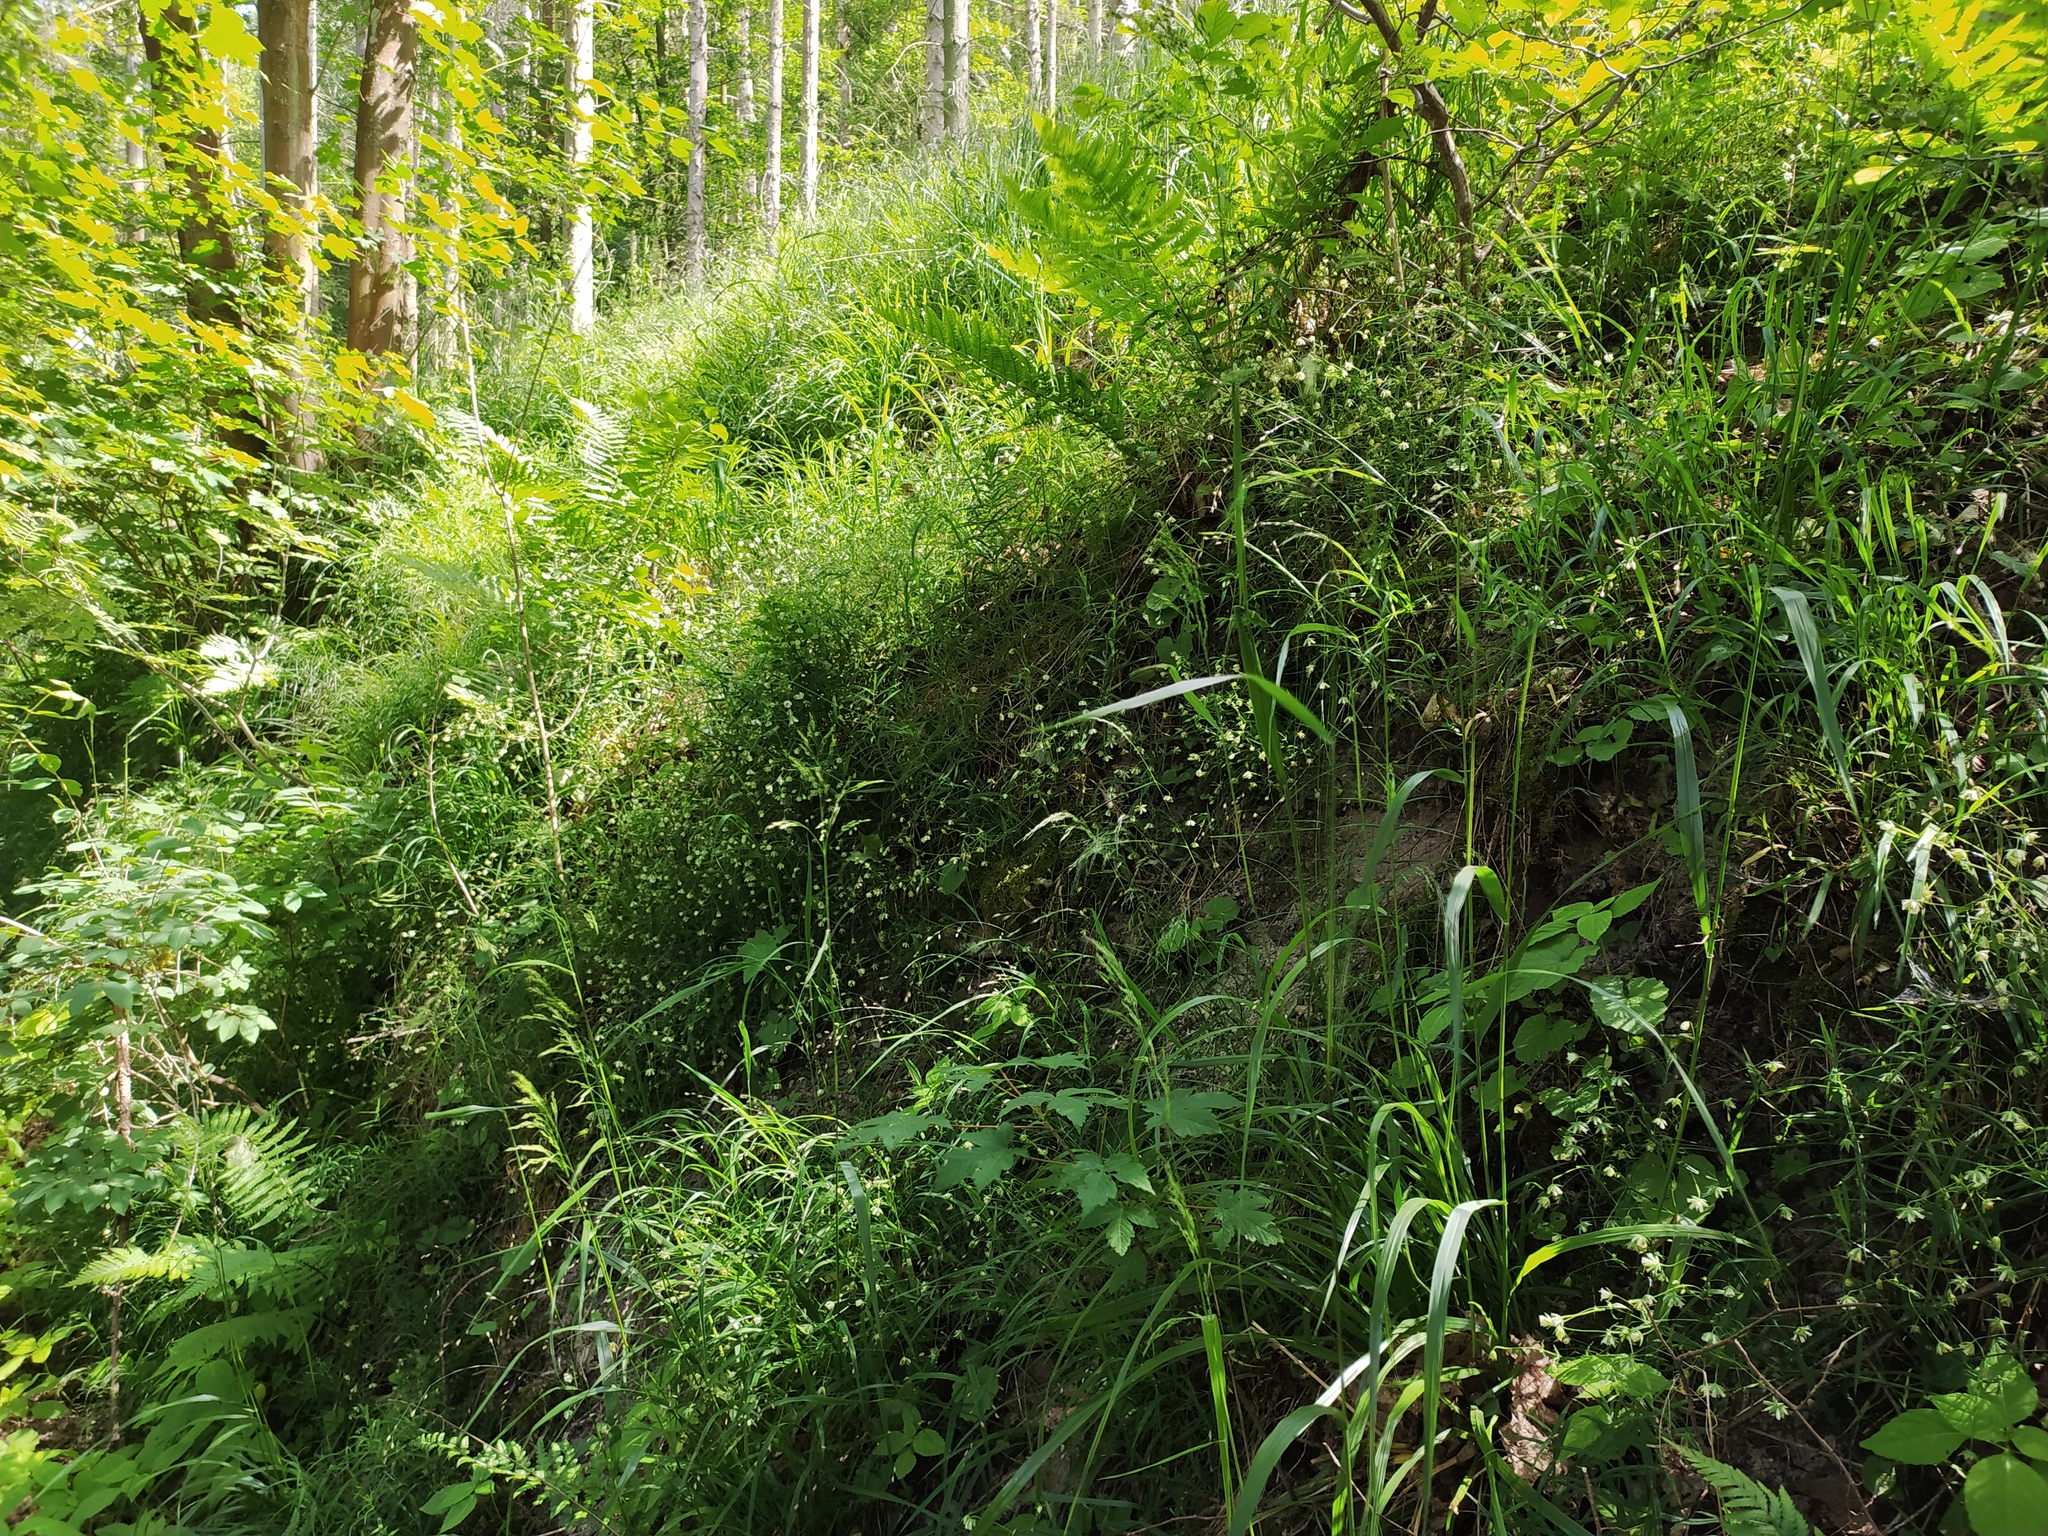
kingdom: Plantae
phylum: Tracheophyta
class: Liliopsida
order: Poales
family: Poaceae
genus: Festuca
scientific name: Festuca altissima
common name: Wood fescue
